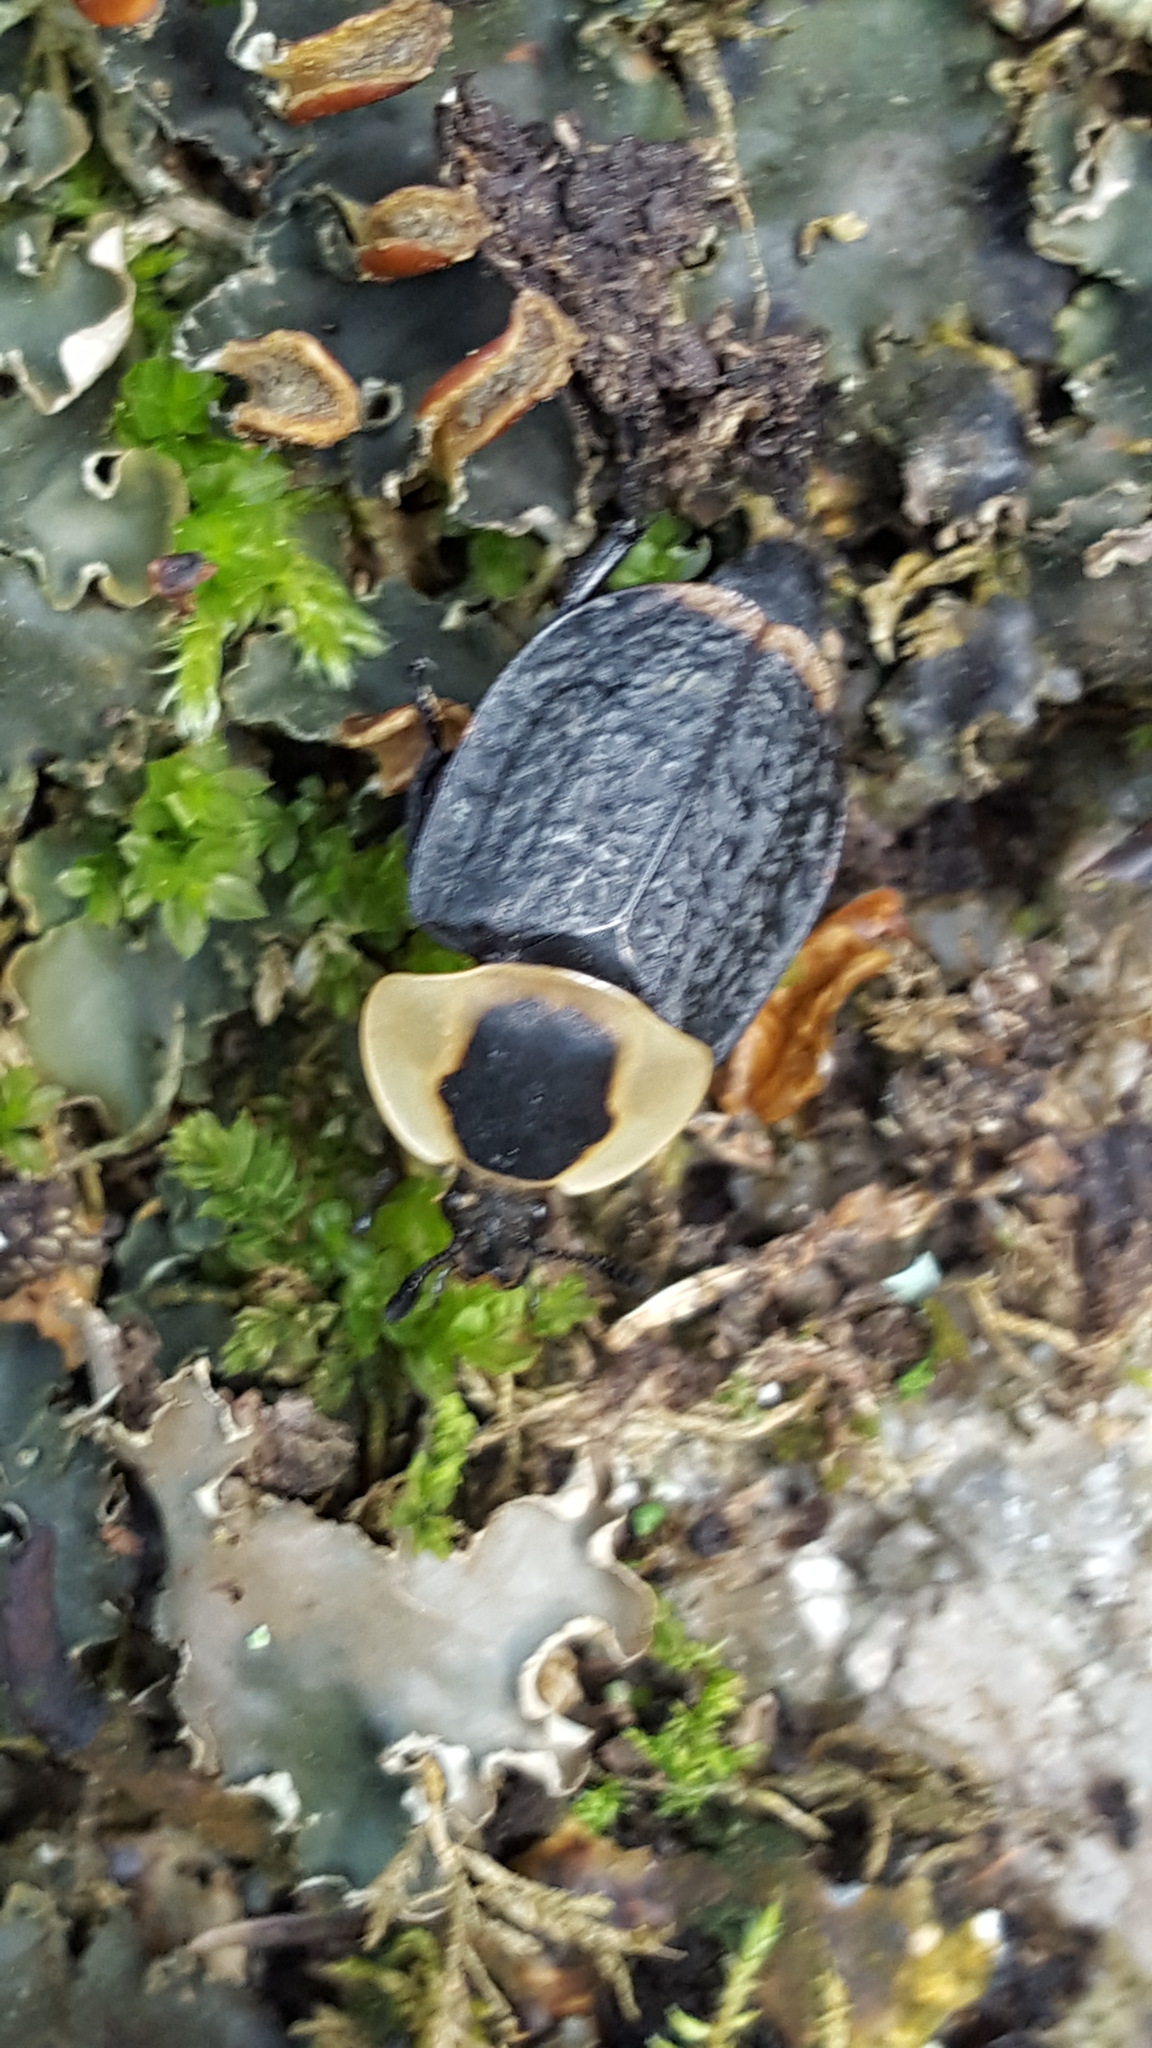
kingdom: Animalia
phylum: Arthropoda
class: Insecta
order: Coleoptera
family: Staphylinidae
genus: Necrophila
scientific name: Necrophila americana
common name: American carrion beetle
